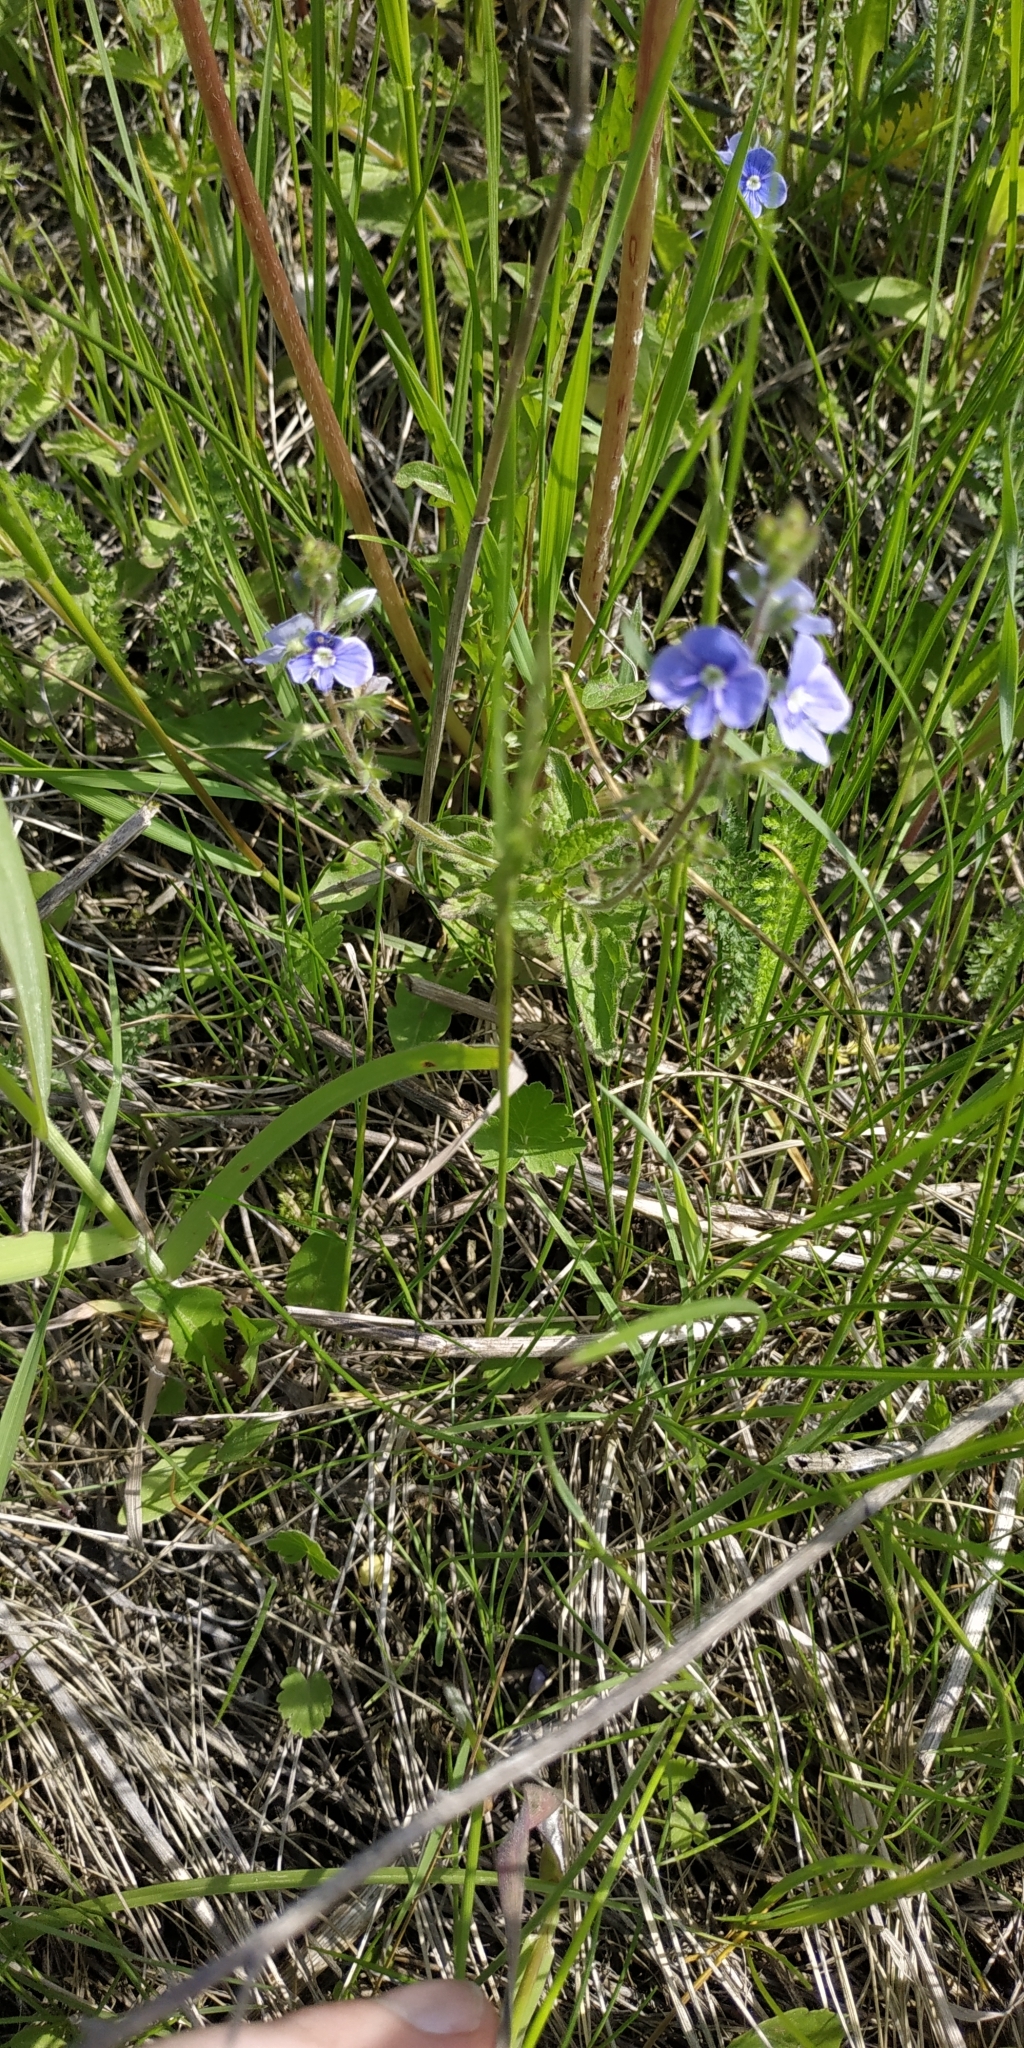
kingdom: Plantae
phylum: Tracheophyta
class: Magnoliopsida
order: Lamiales
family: Plantaginaceae
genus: Veronica
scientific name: Veronica chamaedrys
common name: Germander speedwell
